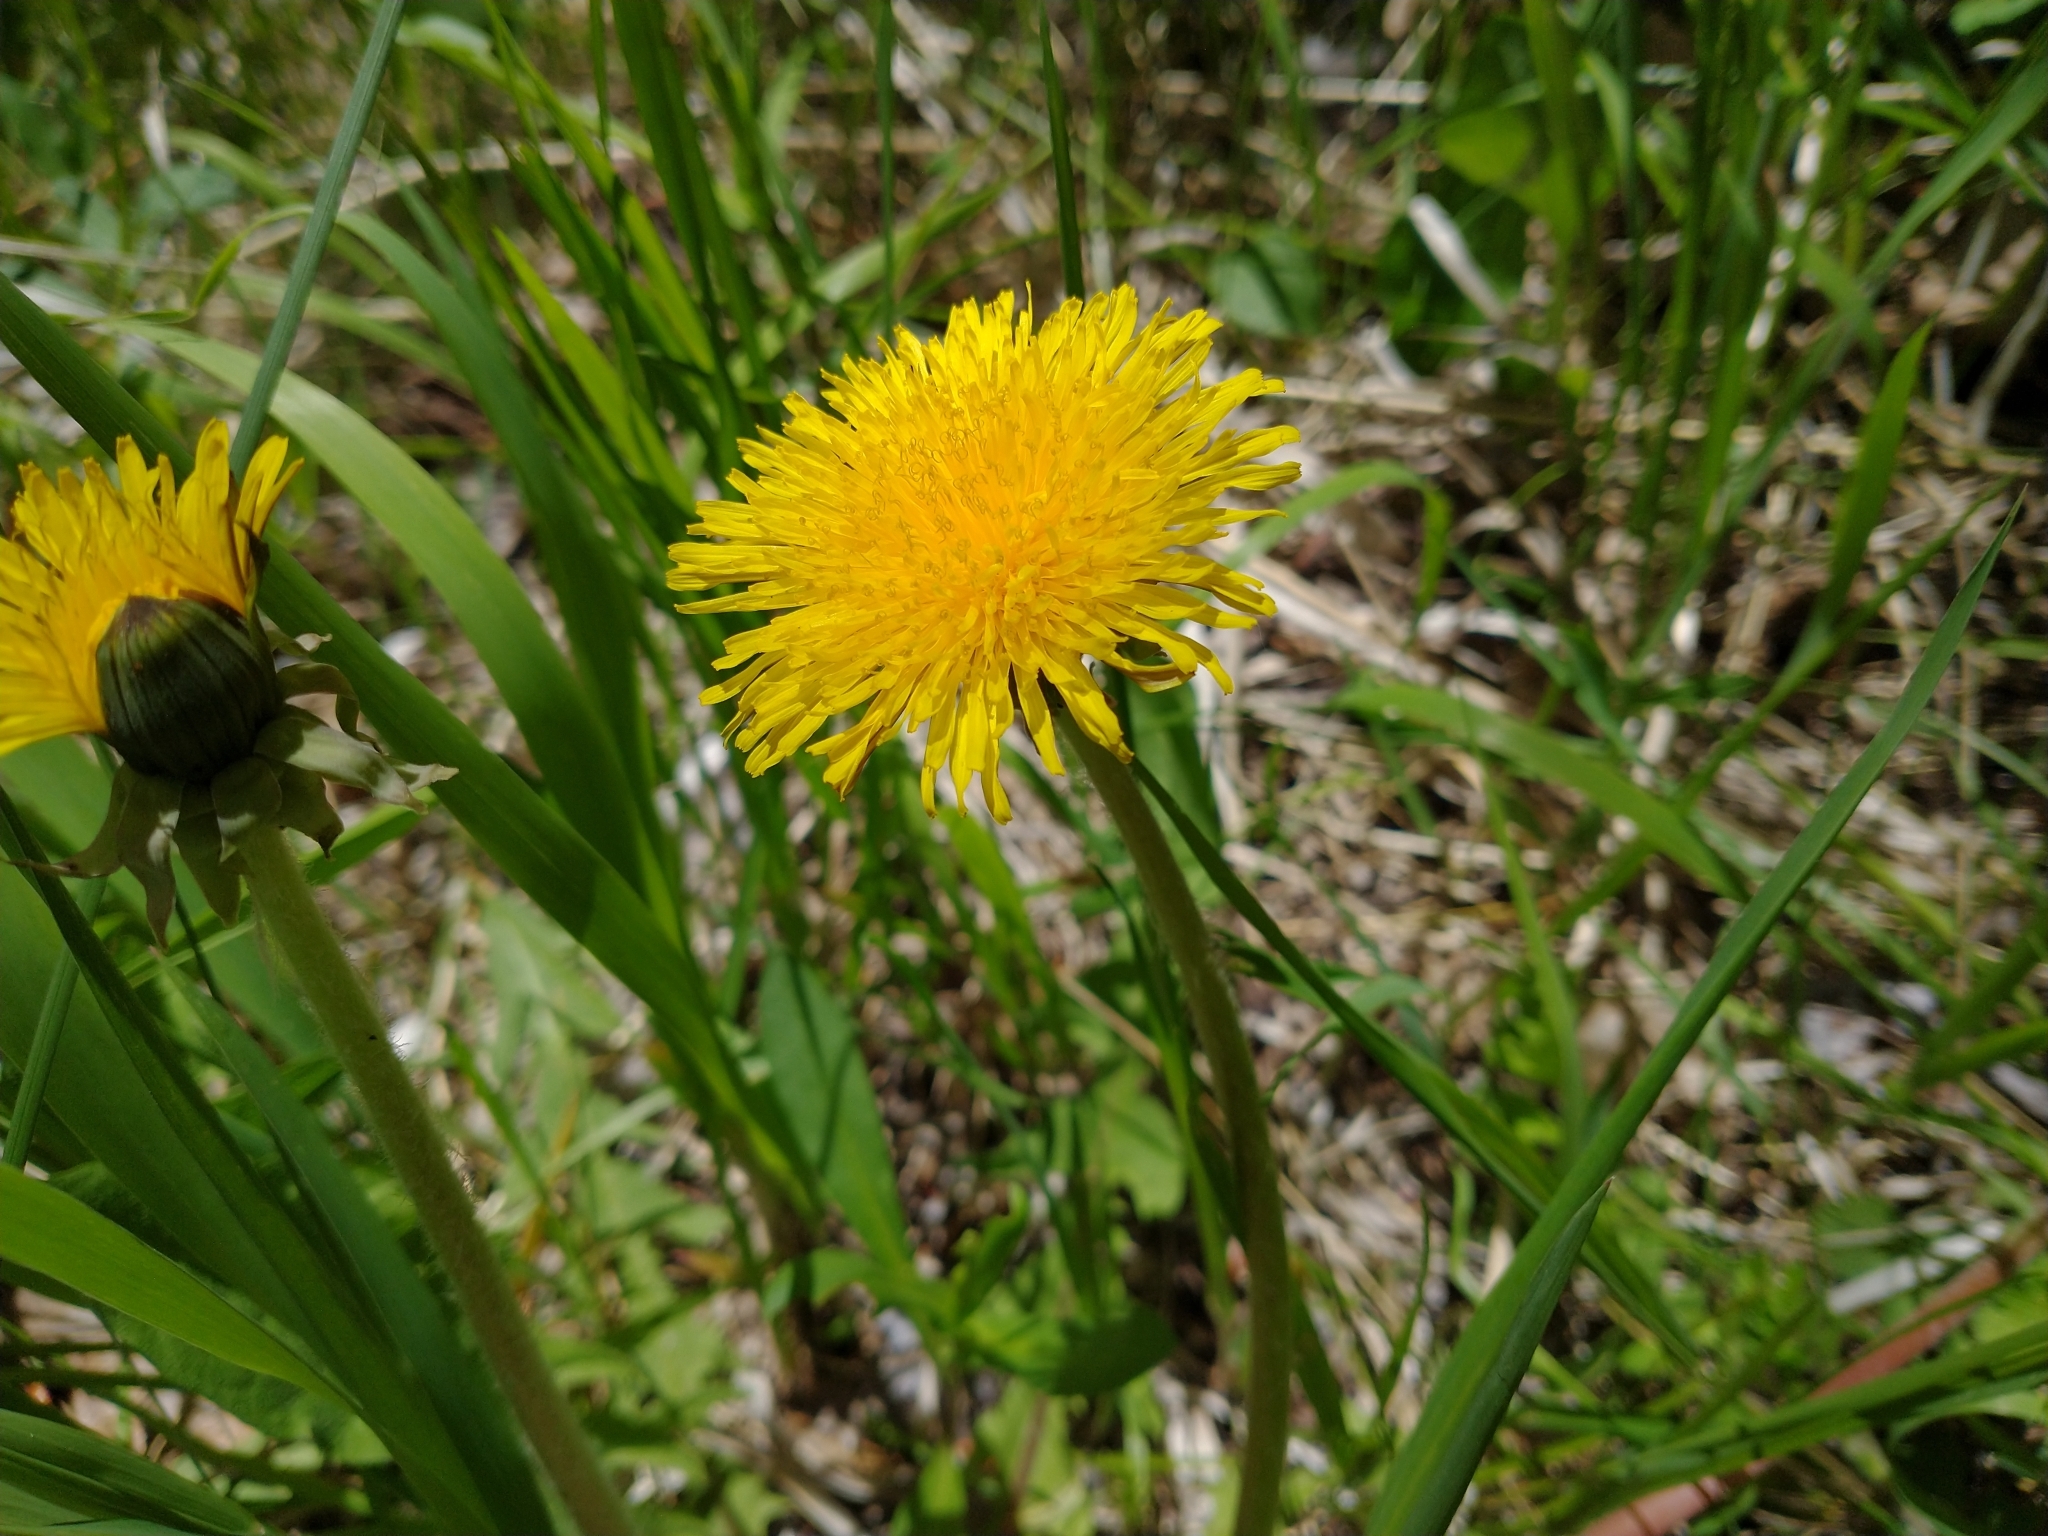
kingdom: Plantae
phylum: Tracheophyta
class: Magnoliopsida
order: Asterales
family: Asteraceae
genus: Taraxacum
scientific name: Taraxacum officinale
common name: Common dandelion
